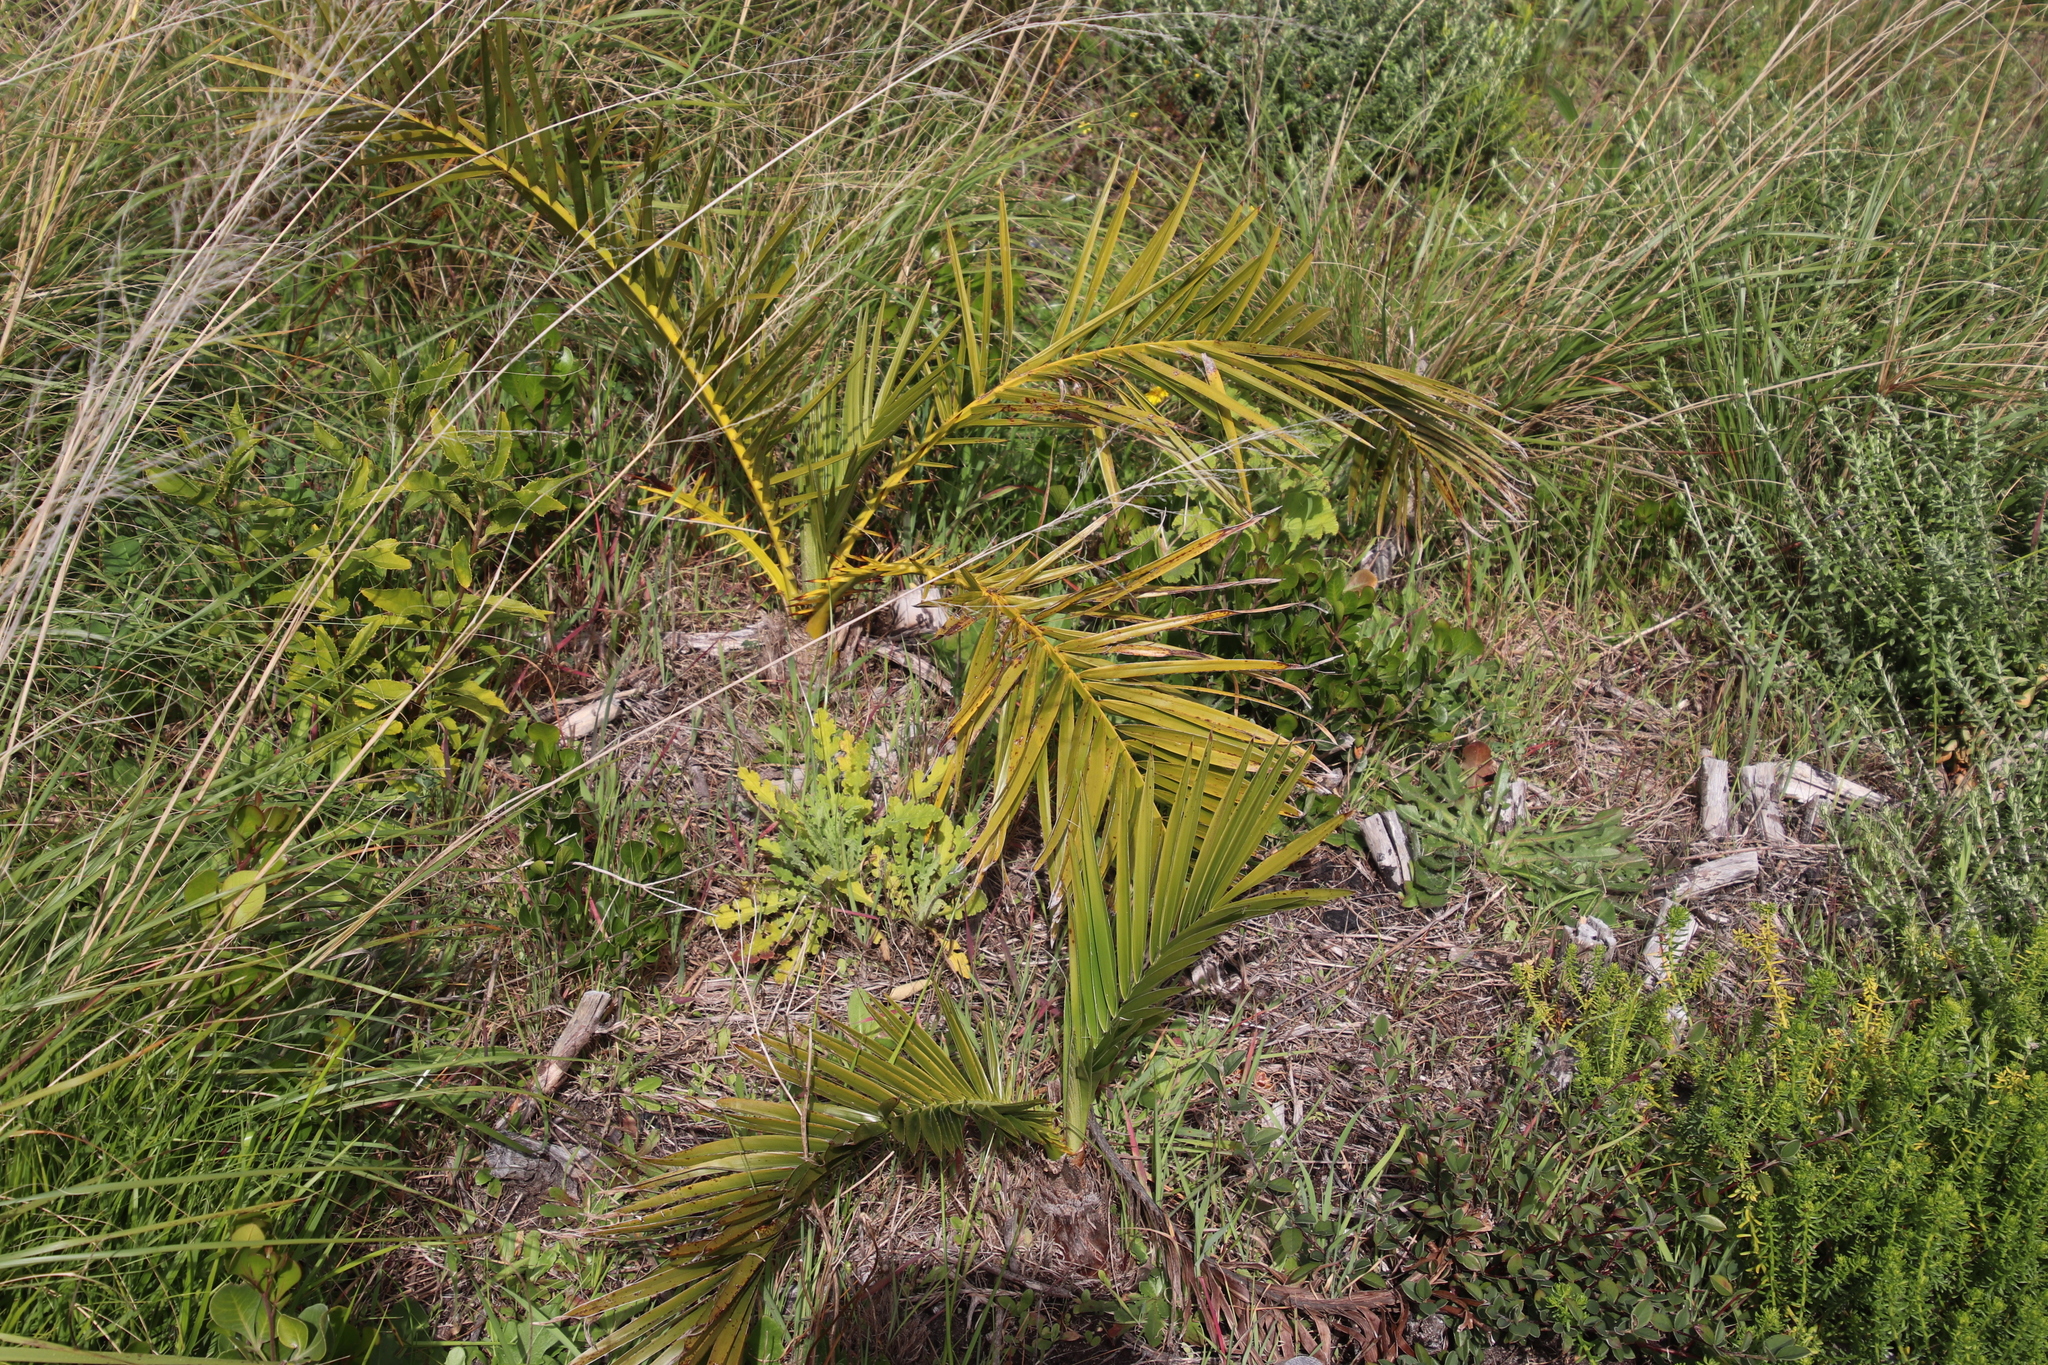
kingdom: Plantae
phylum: Tracheophyta
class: Liliopsida
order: Arecales
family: Arecaceae
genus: Phoenix
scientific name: Phoenix canariensis
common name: Canary island date palm
